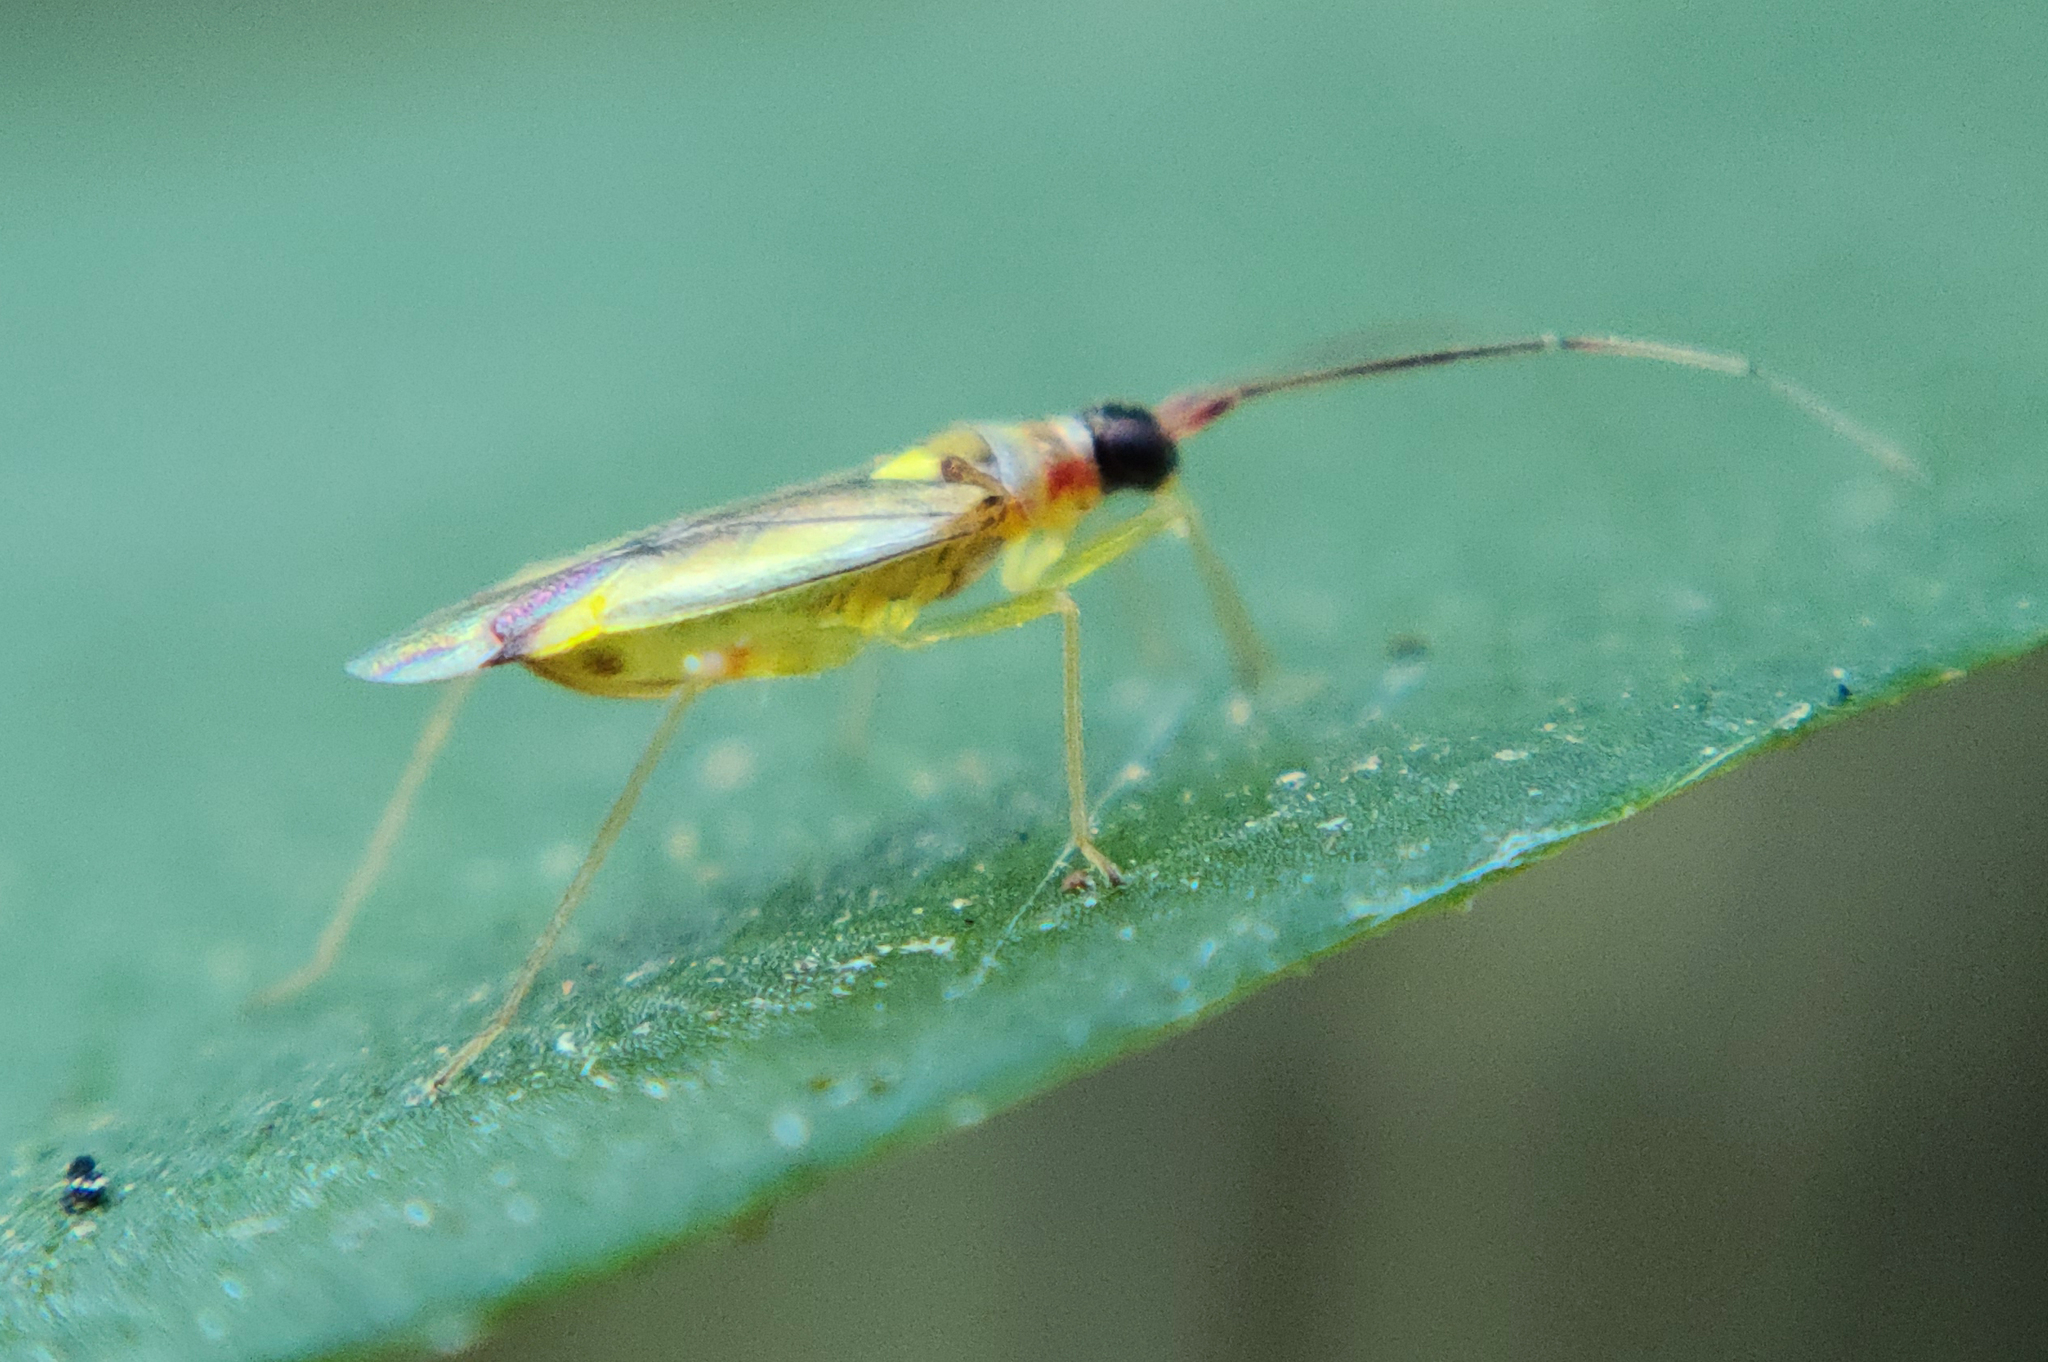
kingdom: Animalia
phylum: Arthropoda
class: Insecta
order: Hemiptera
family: Miridae
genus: Campyloneura
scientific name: Campyloneura virgula
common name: Predatory bug
